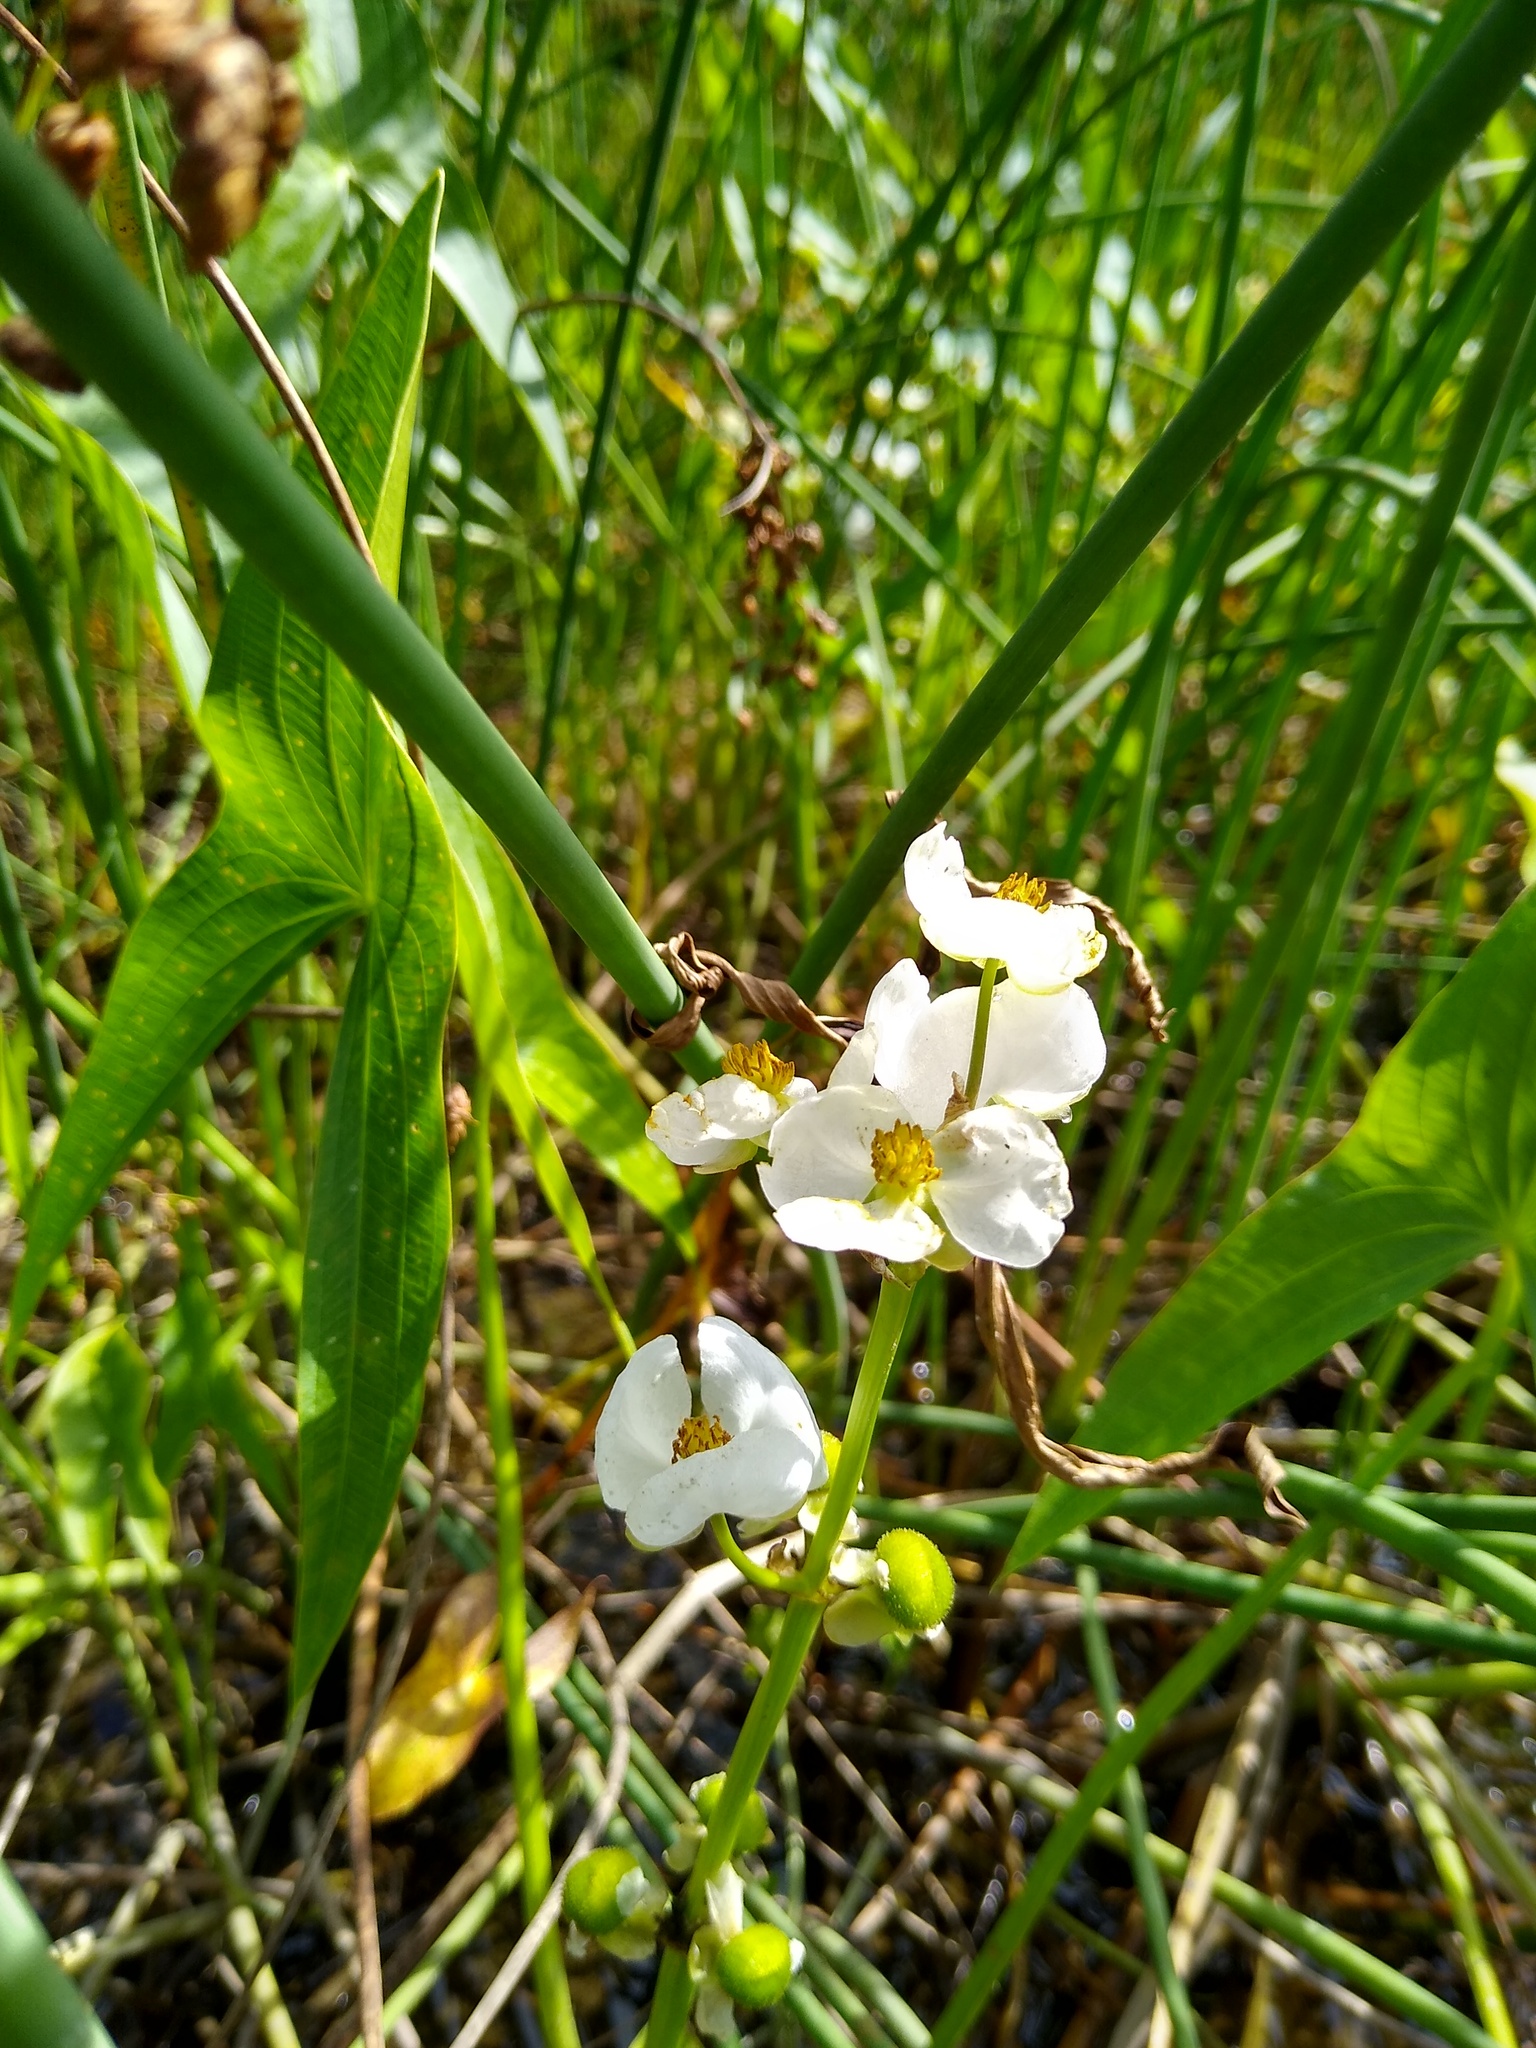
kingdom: Plantae
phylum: Tracheophyta
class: Liliopsida
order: Alismatales
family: Alismataceae
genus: Sagittaria
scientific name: Sagittaria latifolia
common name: Duck-potato
